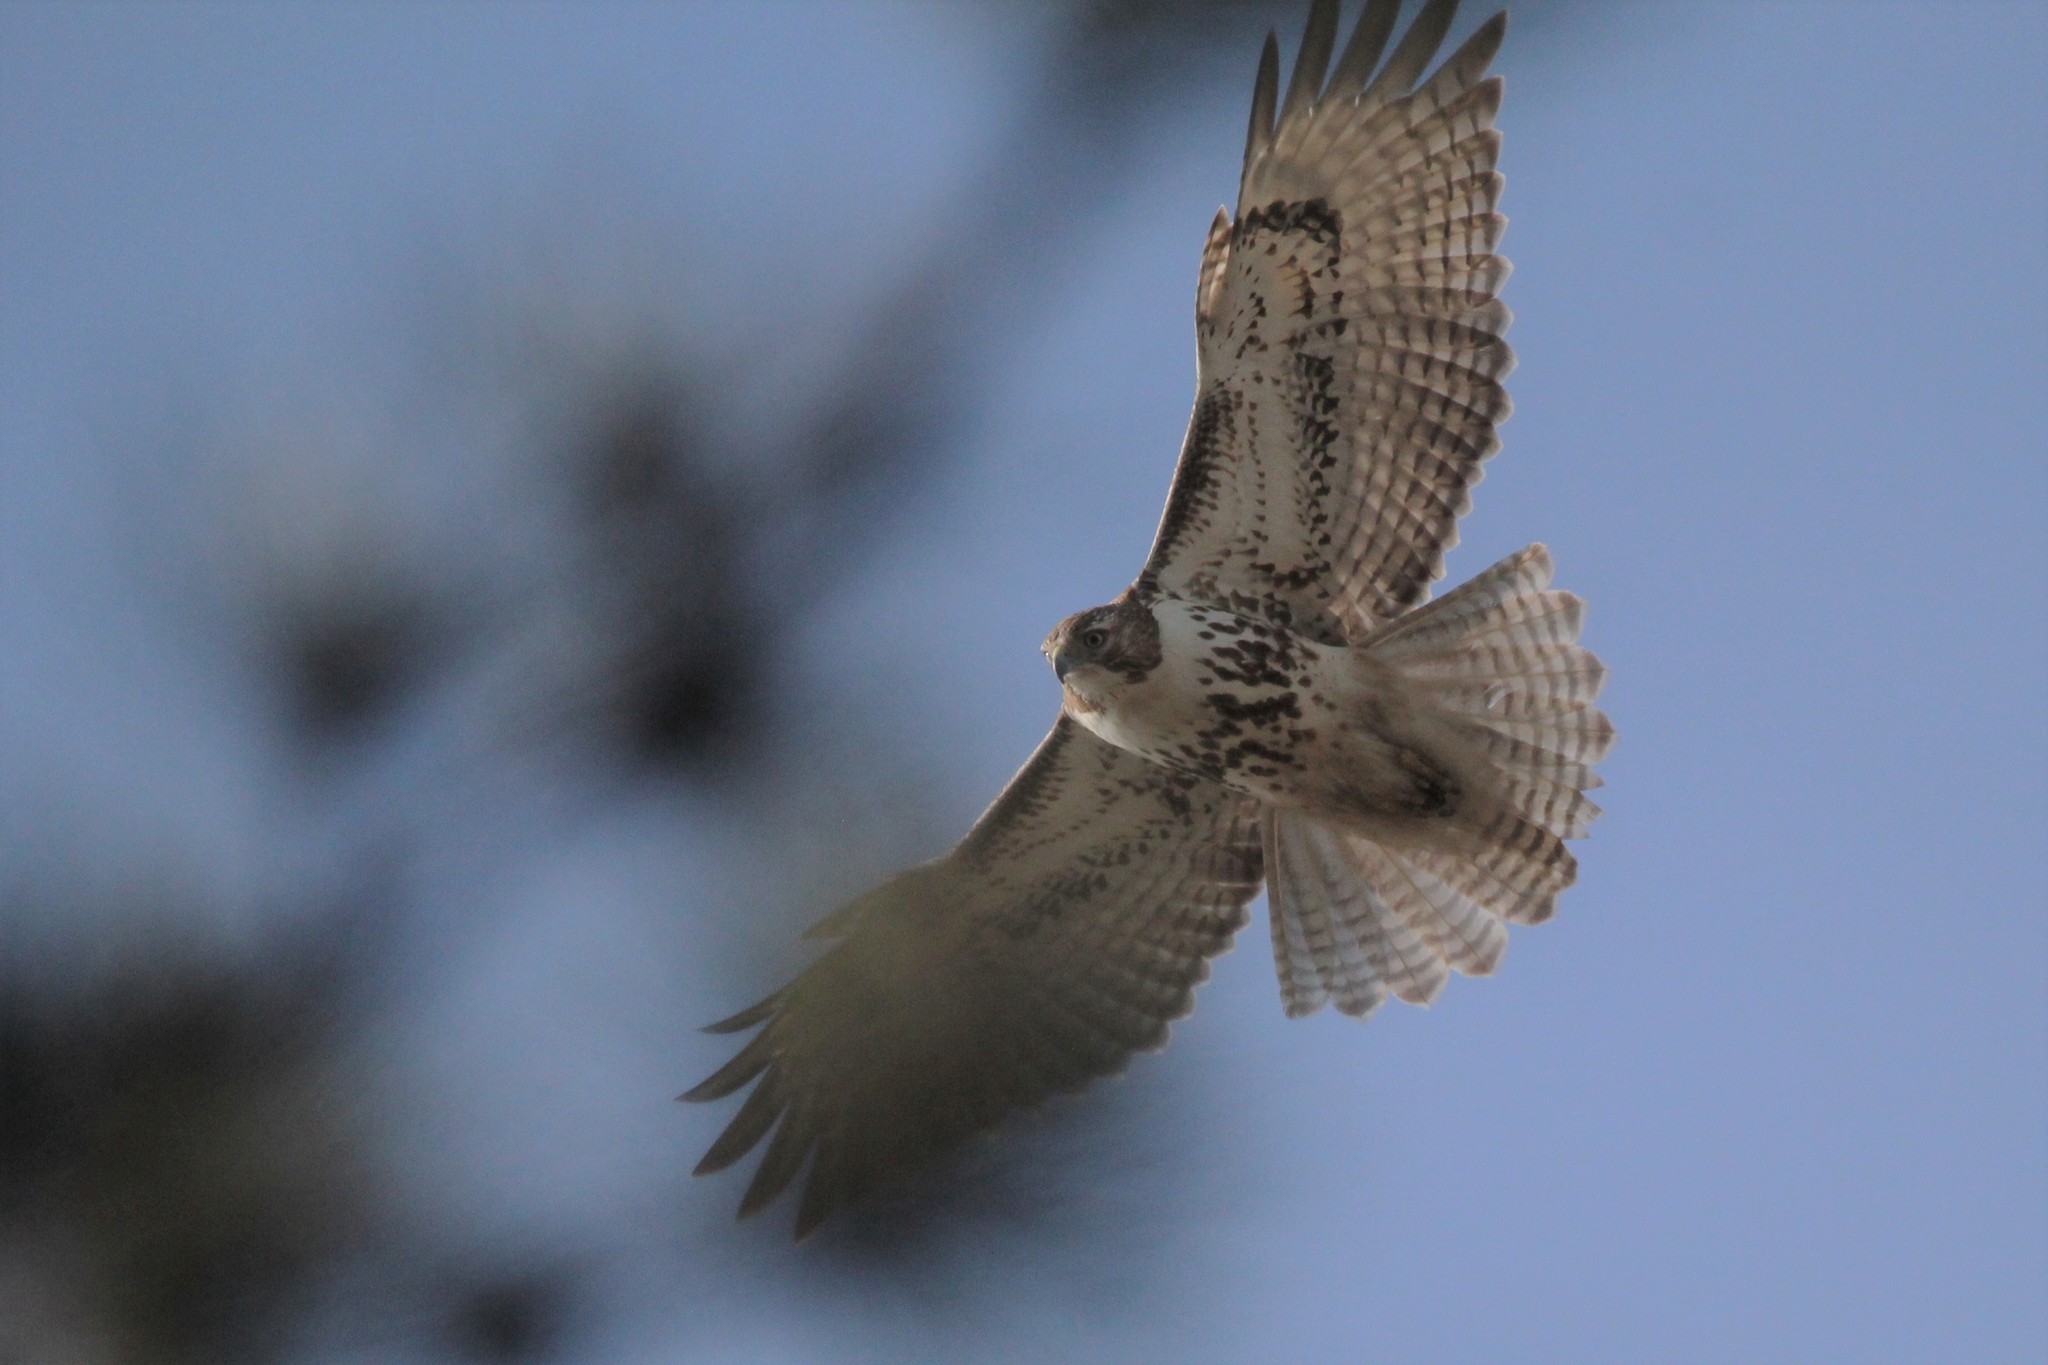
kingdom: Animalia
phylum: Chordata
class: Aves
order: Accipitriformes
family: Accipitridae
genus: Buteo
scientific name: Buteo jamaicensis
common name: Red-tailed hawk
